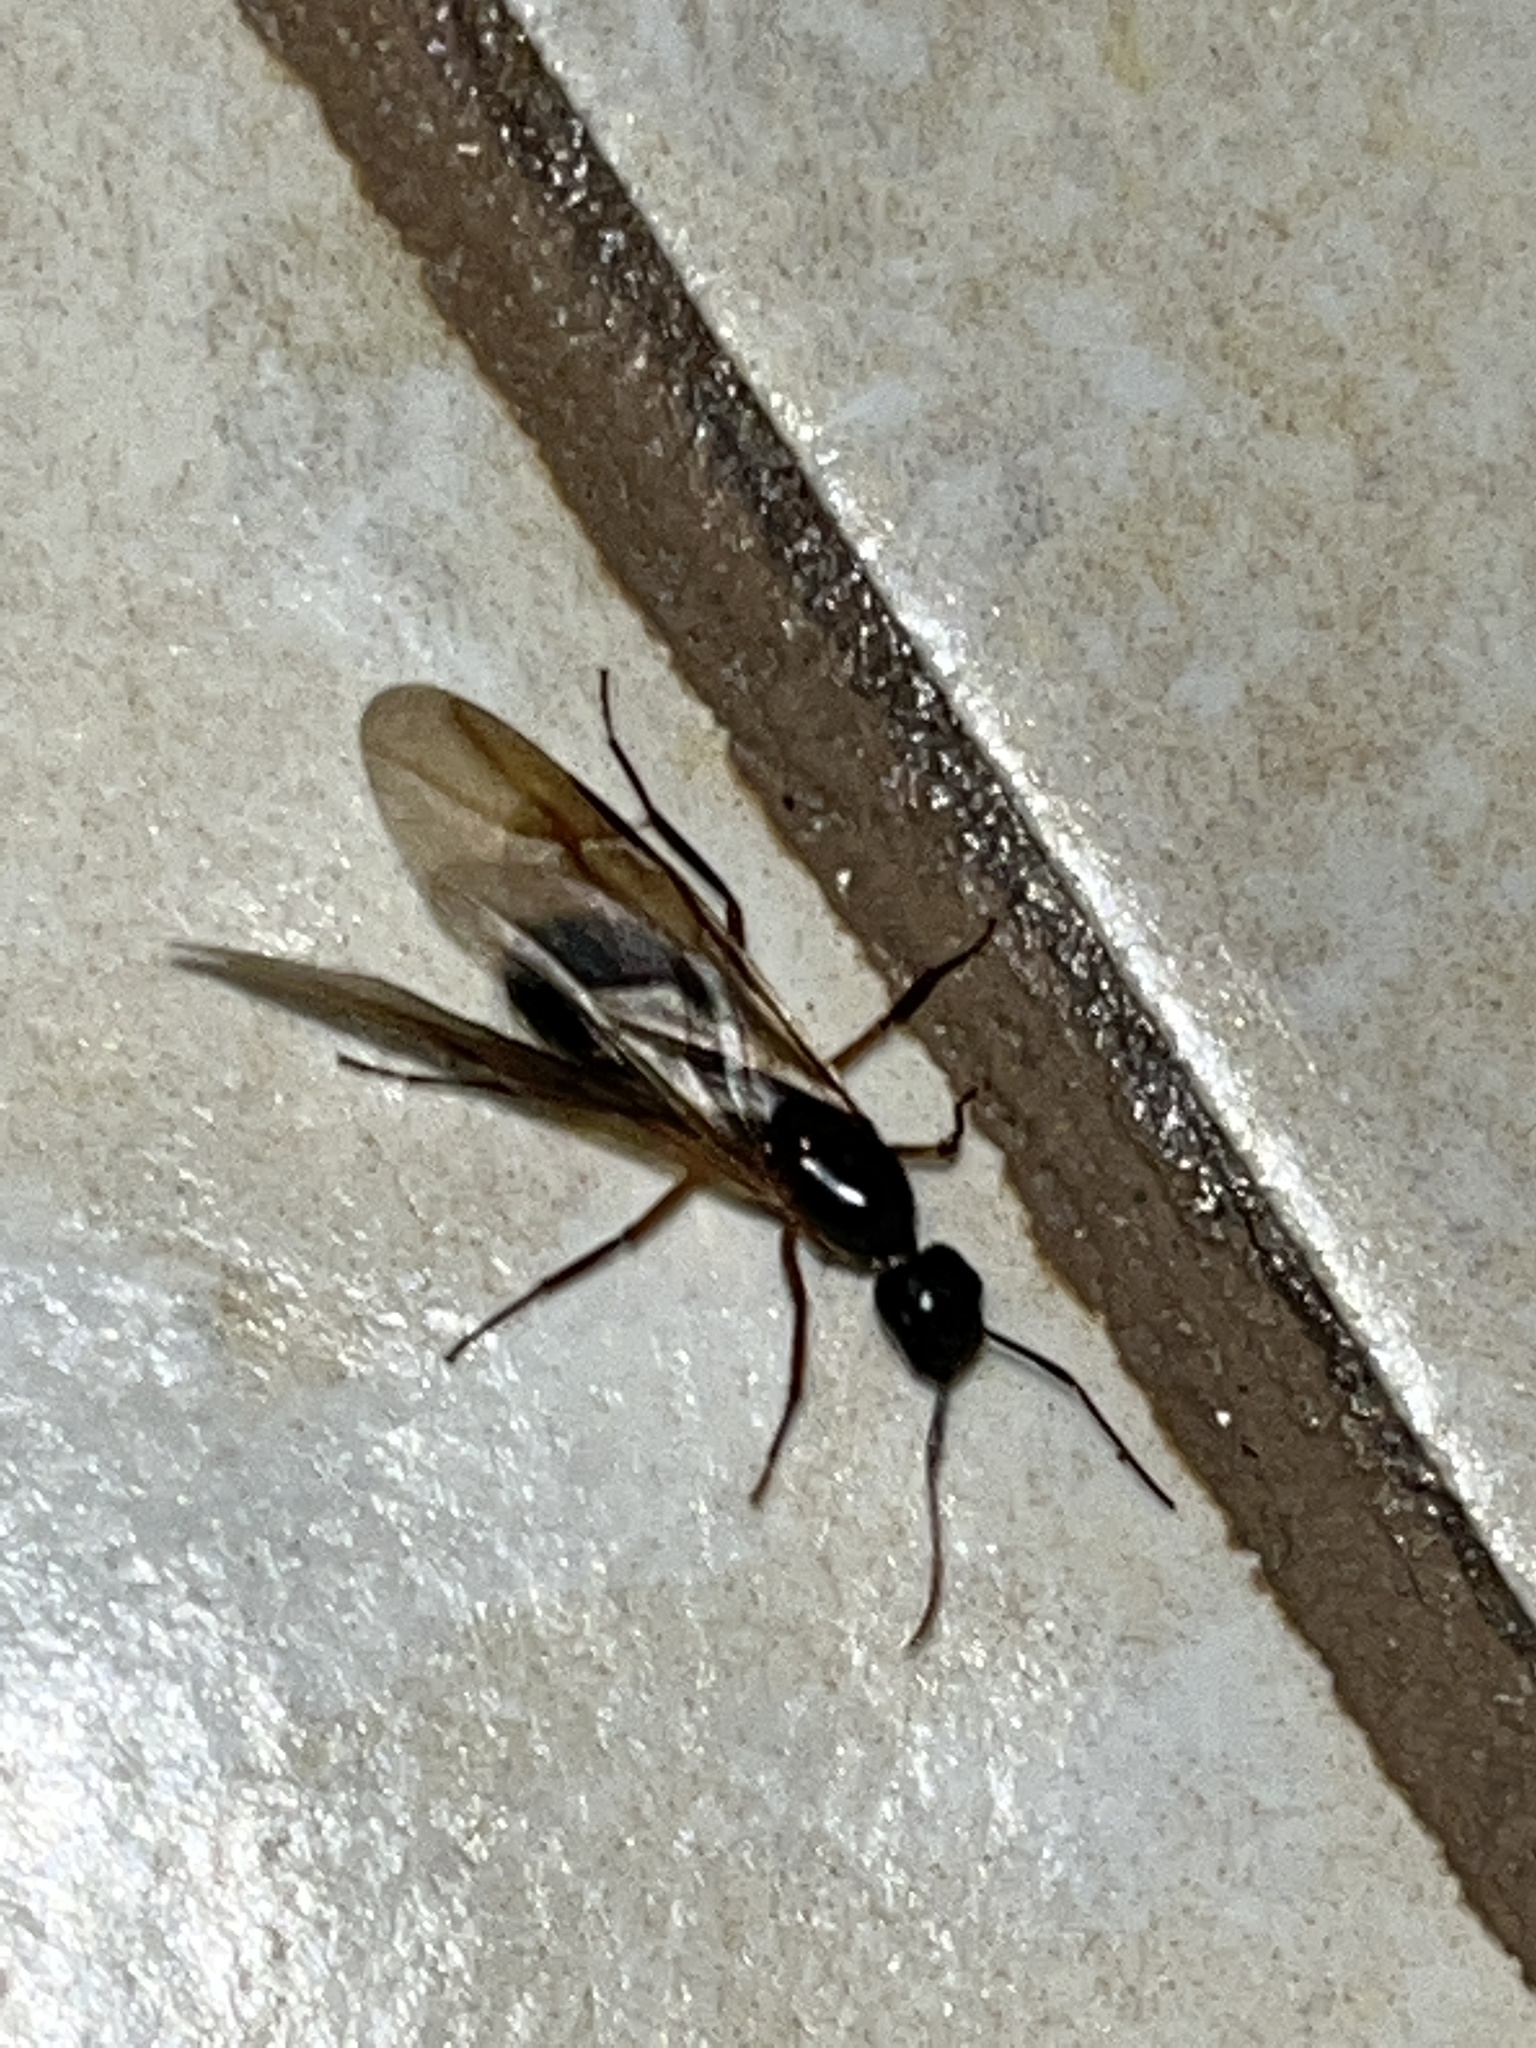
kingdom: Animalia
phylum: Arthropoda
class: Insecta
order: Hymenoptera
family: Formicidae
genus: Camponotus
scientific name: Camponotus maculatus
